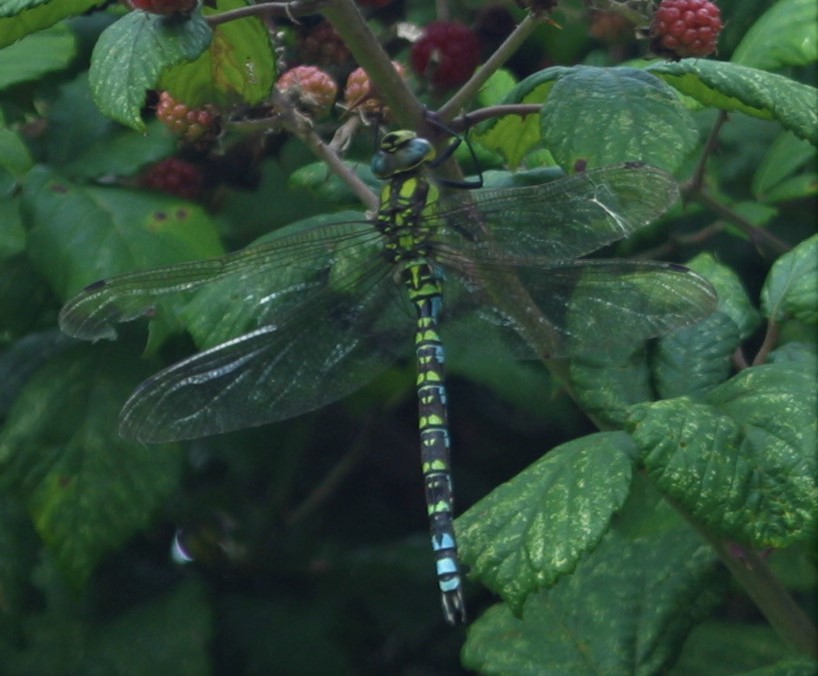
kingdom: Animalia
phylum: Arthropoda
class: Insecta
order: Odonata
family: Aeshnidae
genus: Aeshna
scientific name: Aeshna cyanea
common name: Southern hawker
